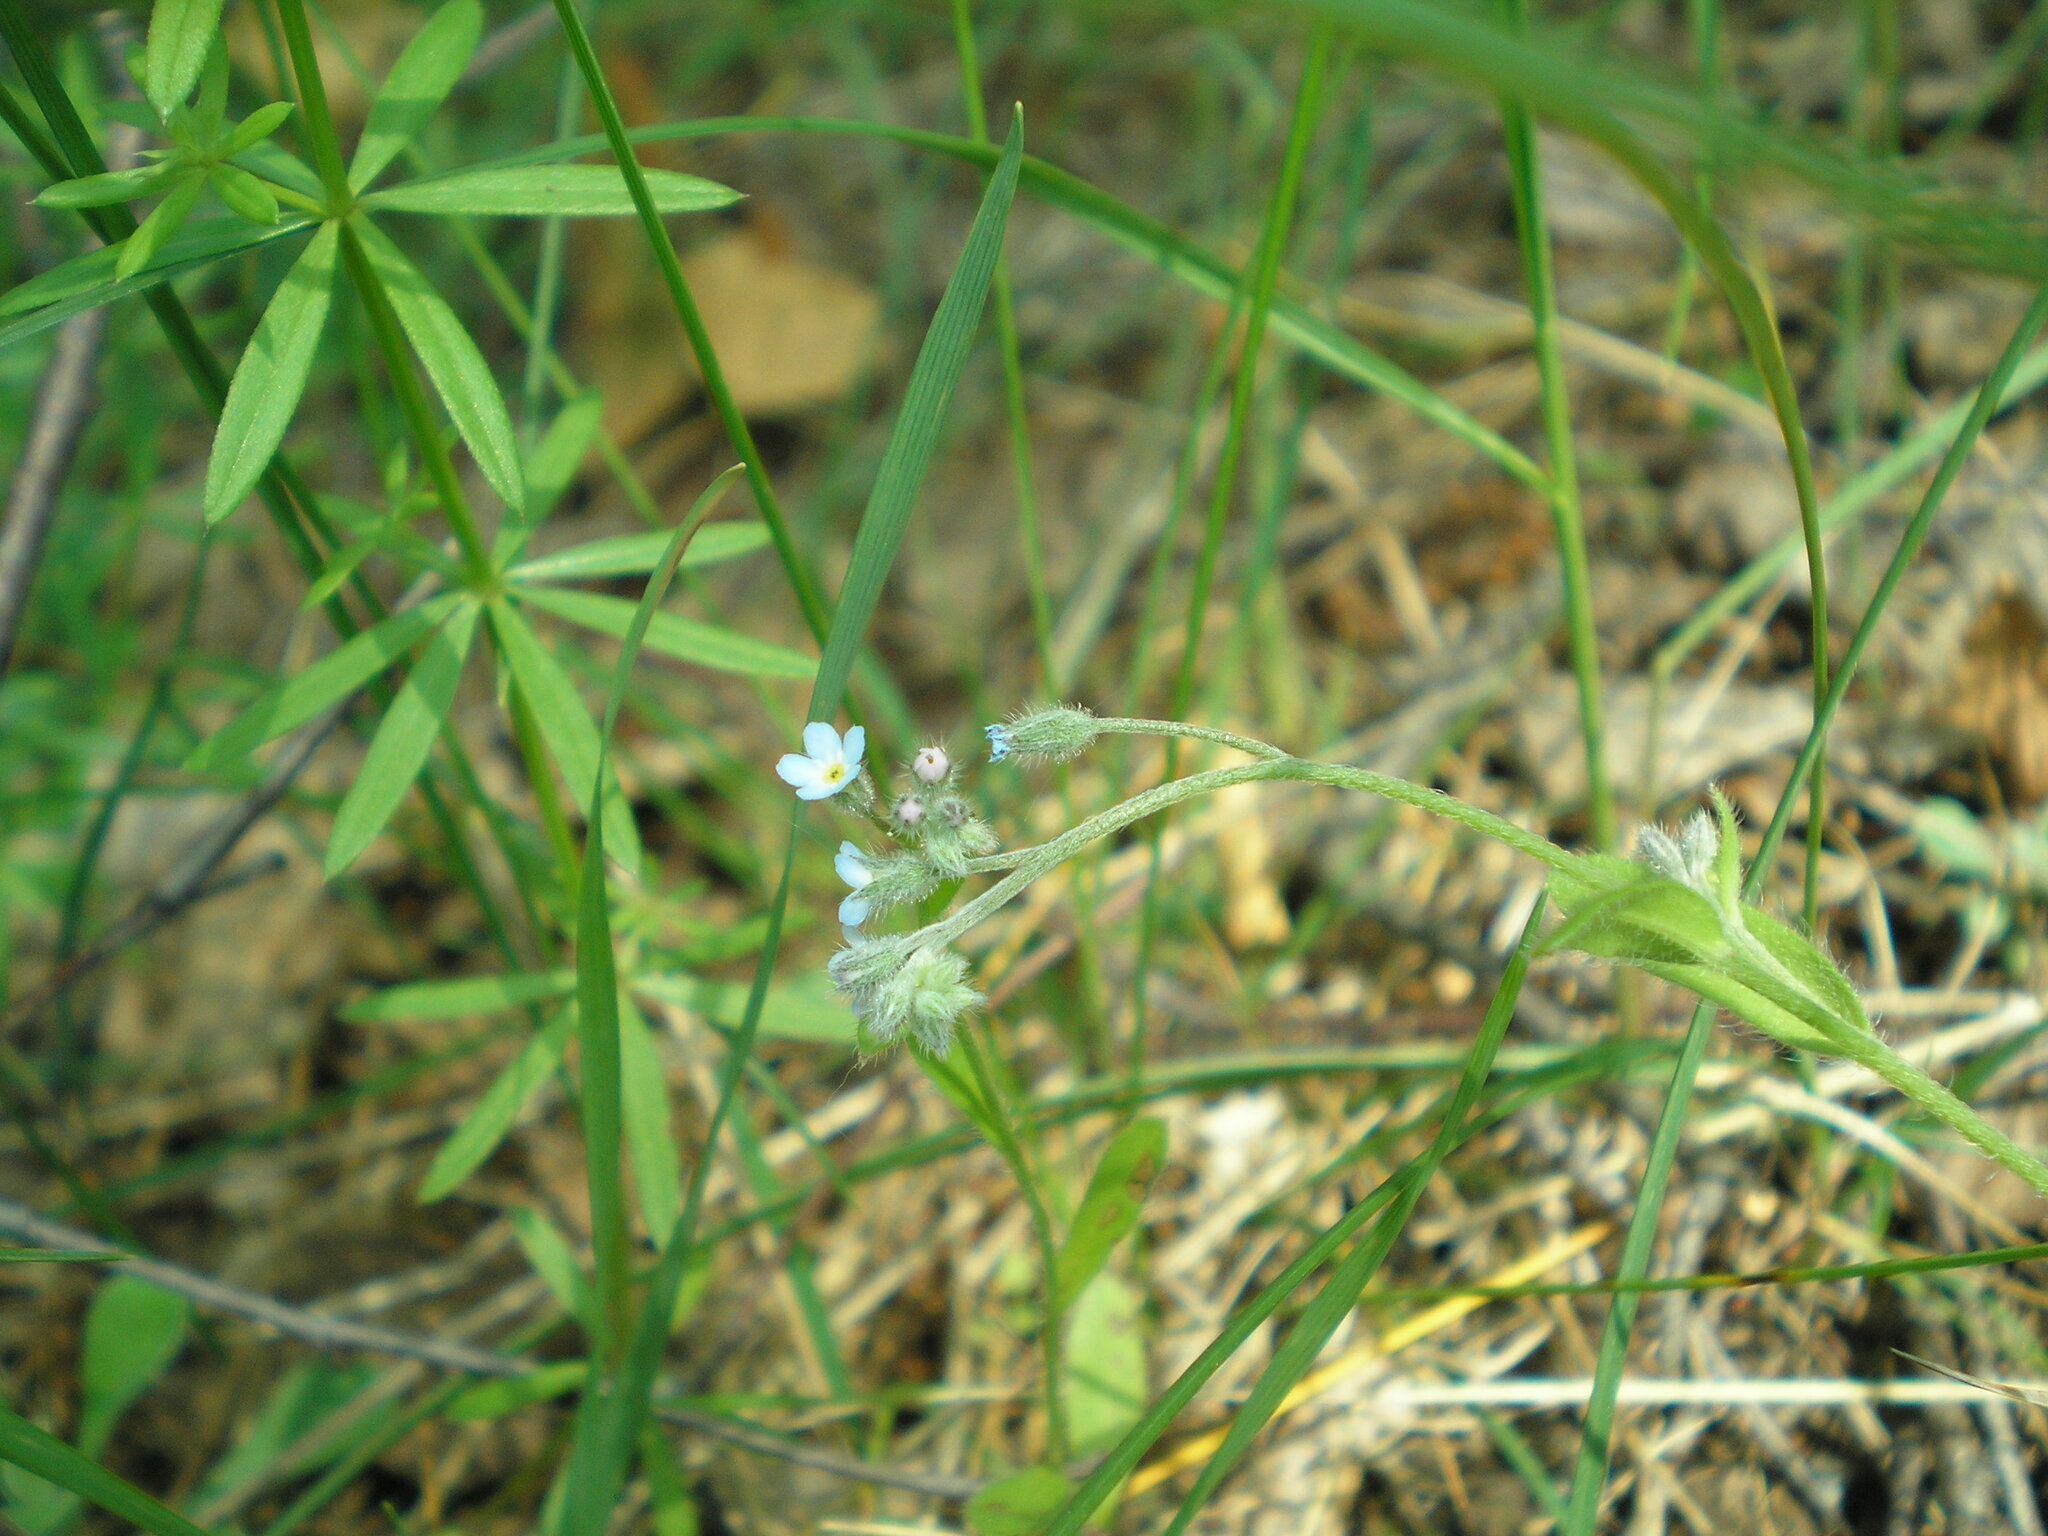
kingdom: Plantae
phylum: Tracheophyta
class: Magnoliopsida
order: Boraginales
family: Boraginaceae
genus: Myosotis
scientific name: Myosotis arvensis
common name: Field forget-me-not
